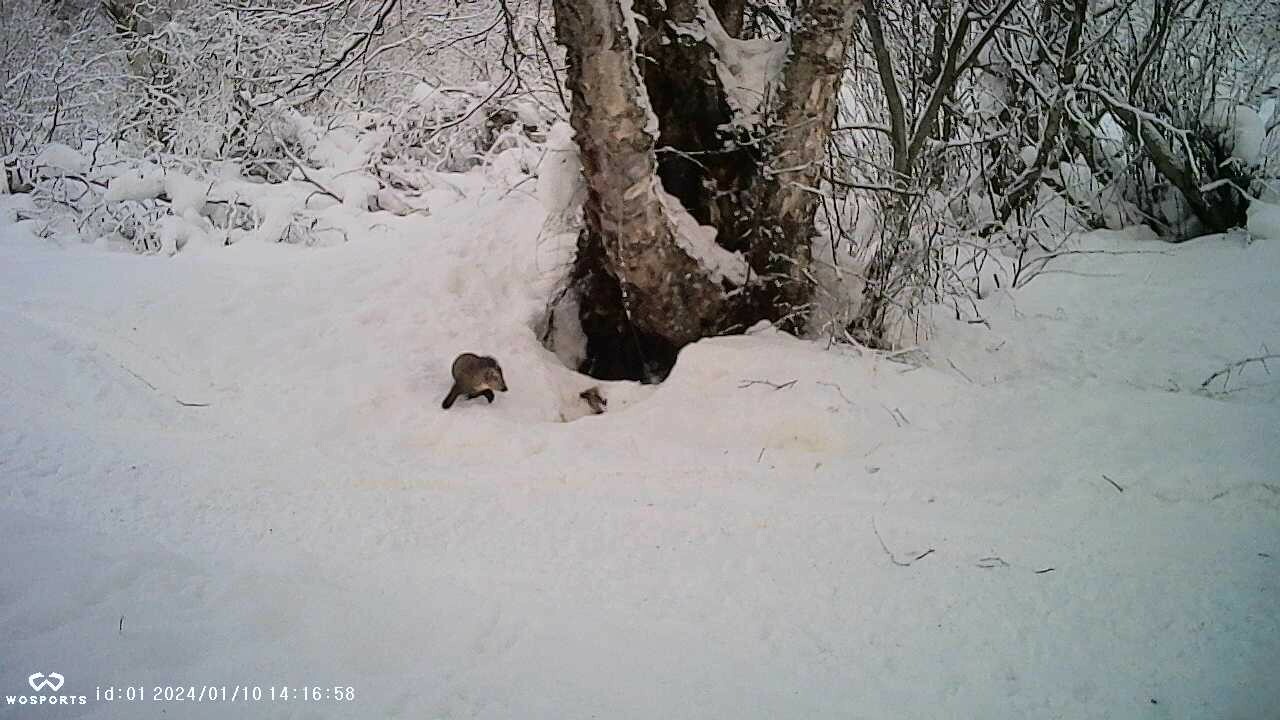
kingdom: Animalia
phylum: Chordata
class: Mammalia
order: Carnivora
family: Mustelidae
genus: Martes
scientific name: Martes americana
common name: American marten
